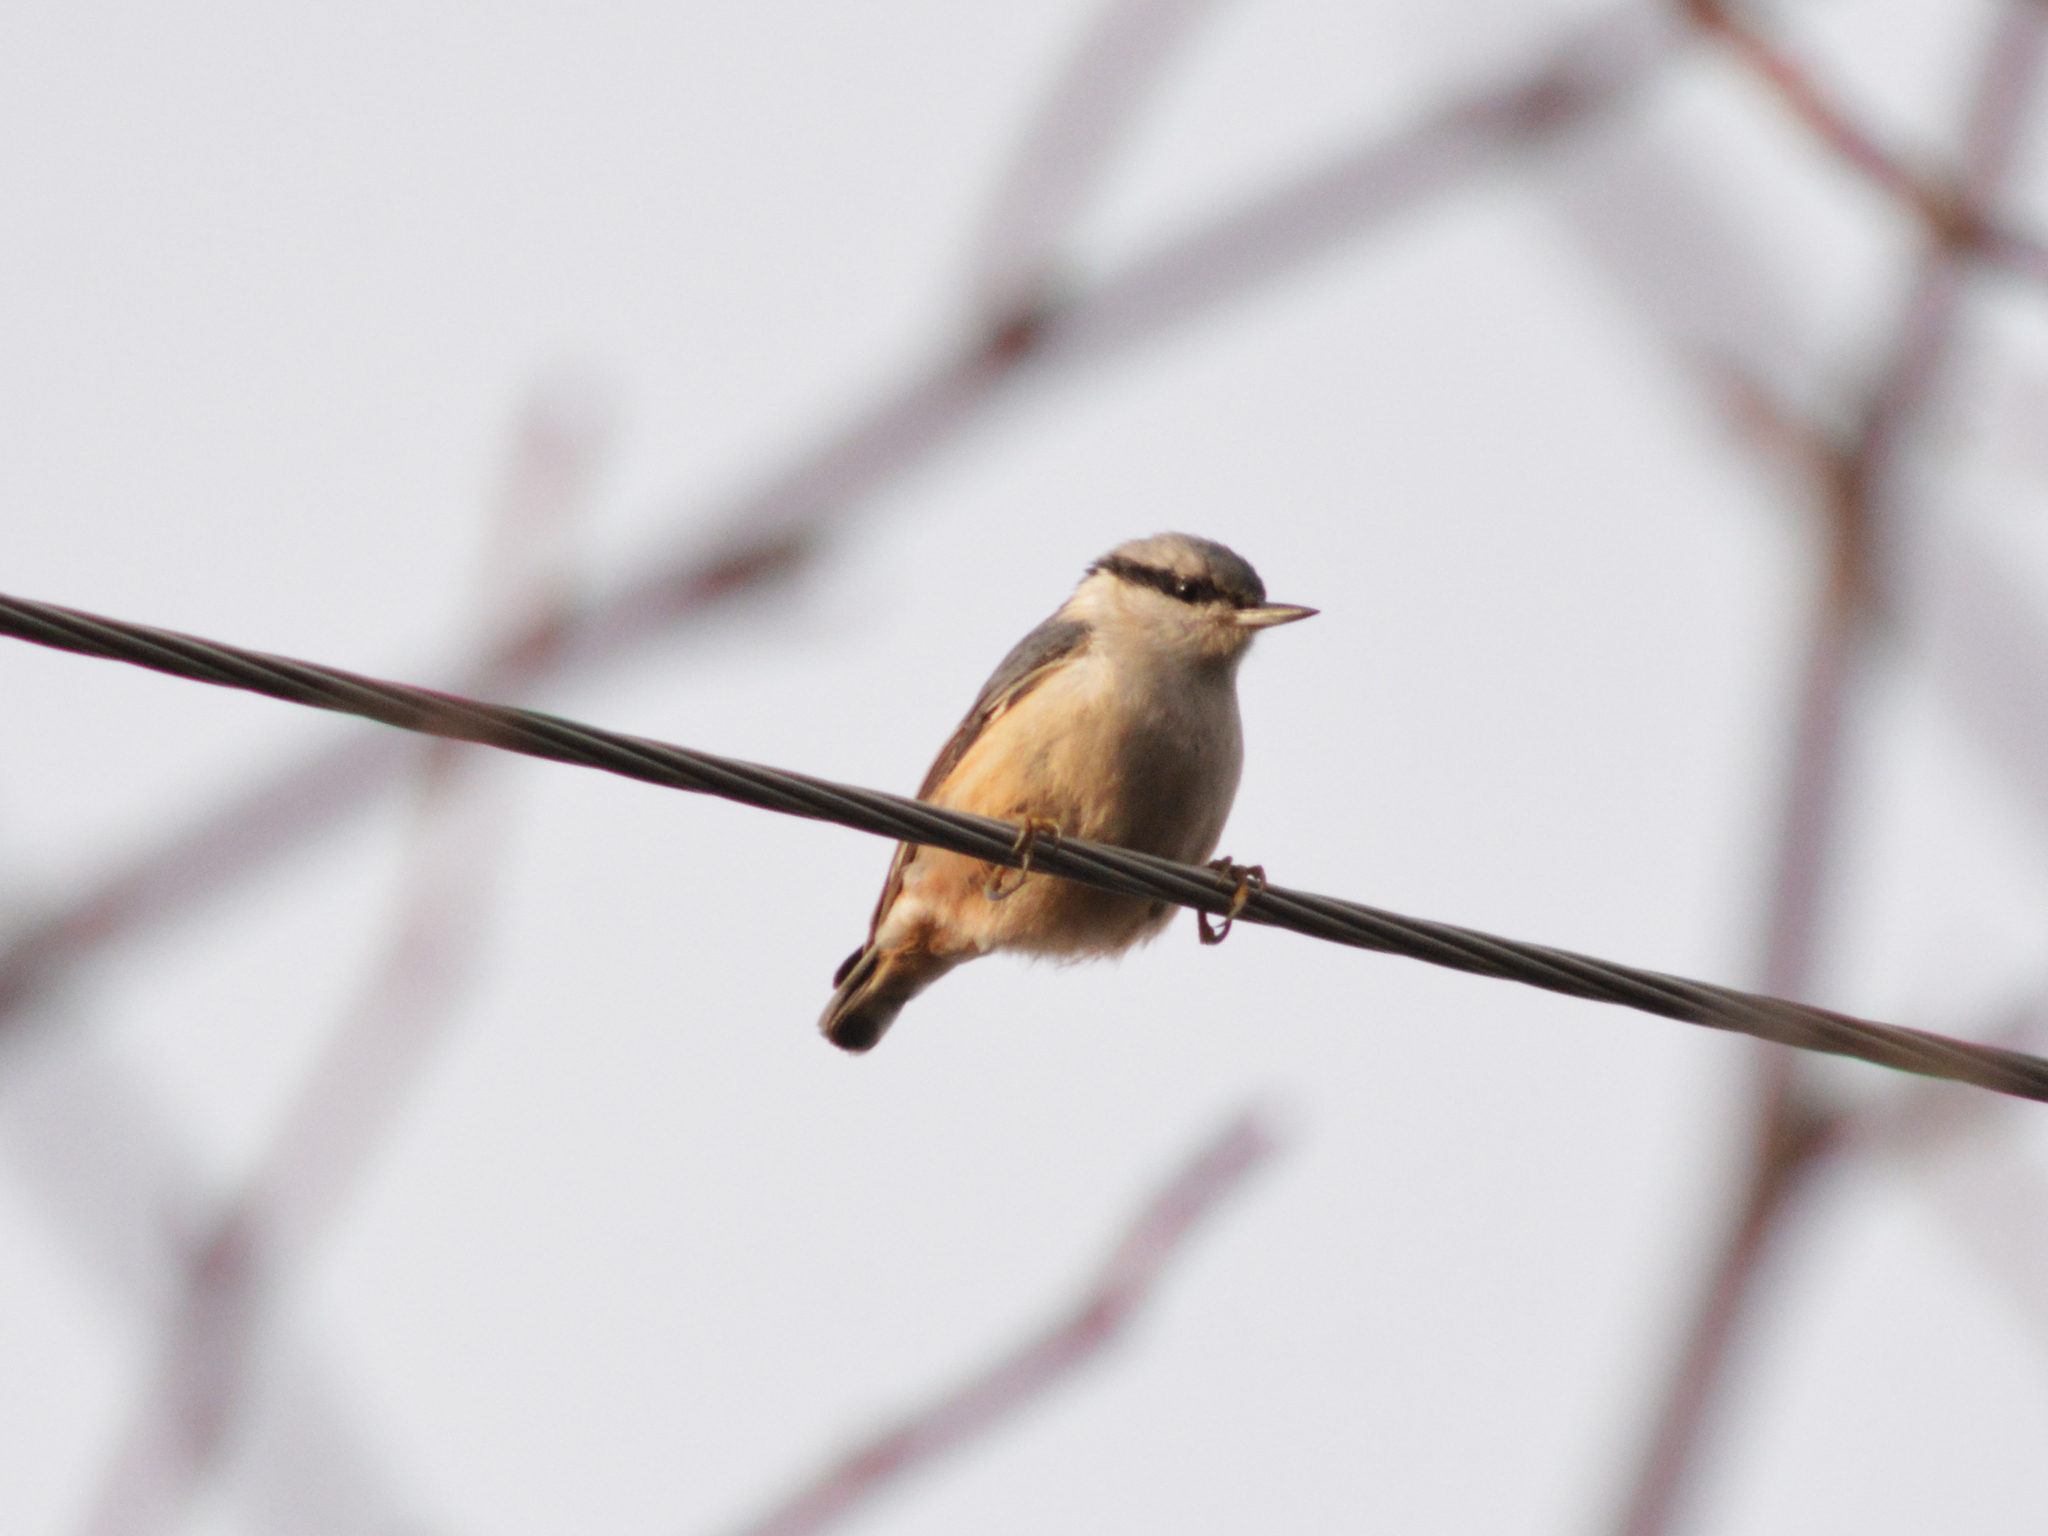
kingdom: Animalia
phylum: Chordata
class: Aves
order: Passeriformes
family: Sittidae
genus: Sitta
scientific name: Sitta europaea
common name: Eurasian nuthatch
